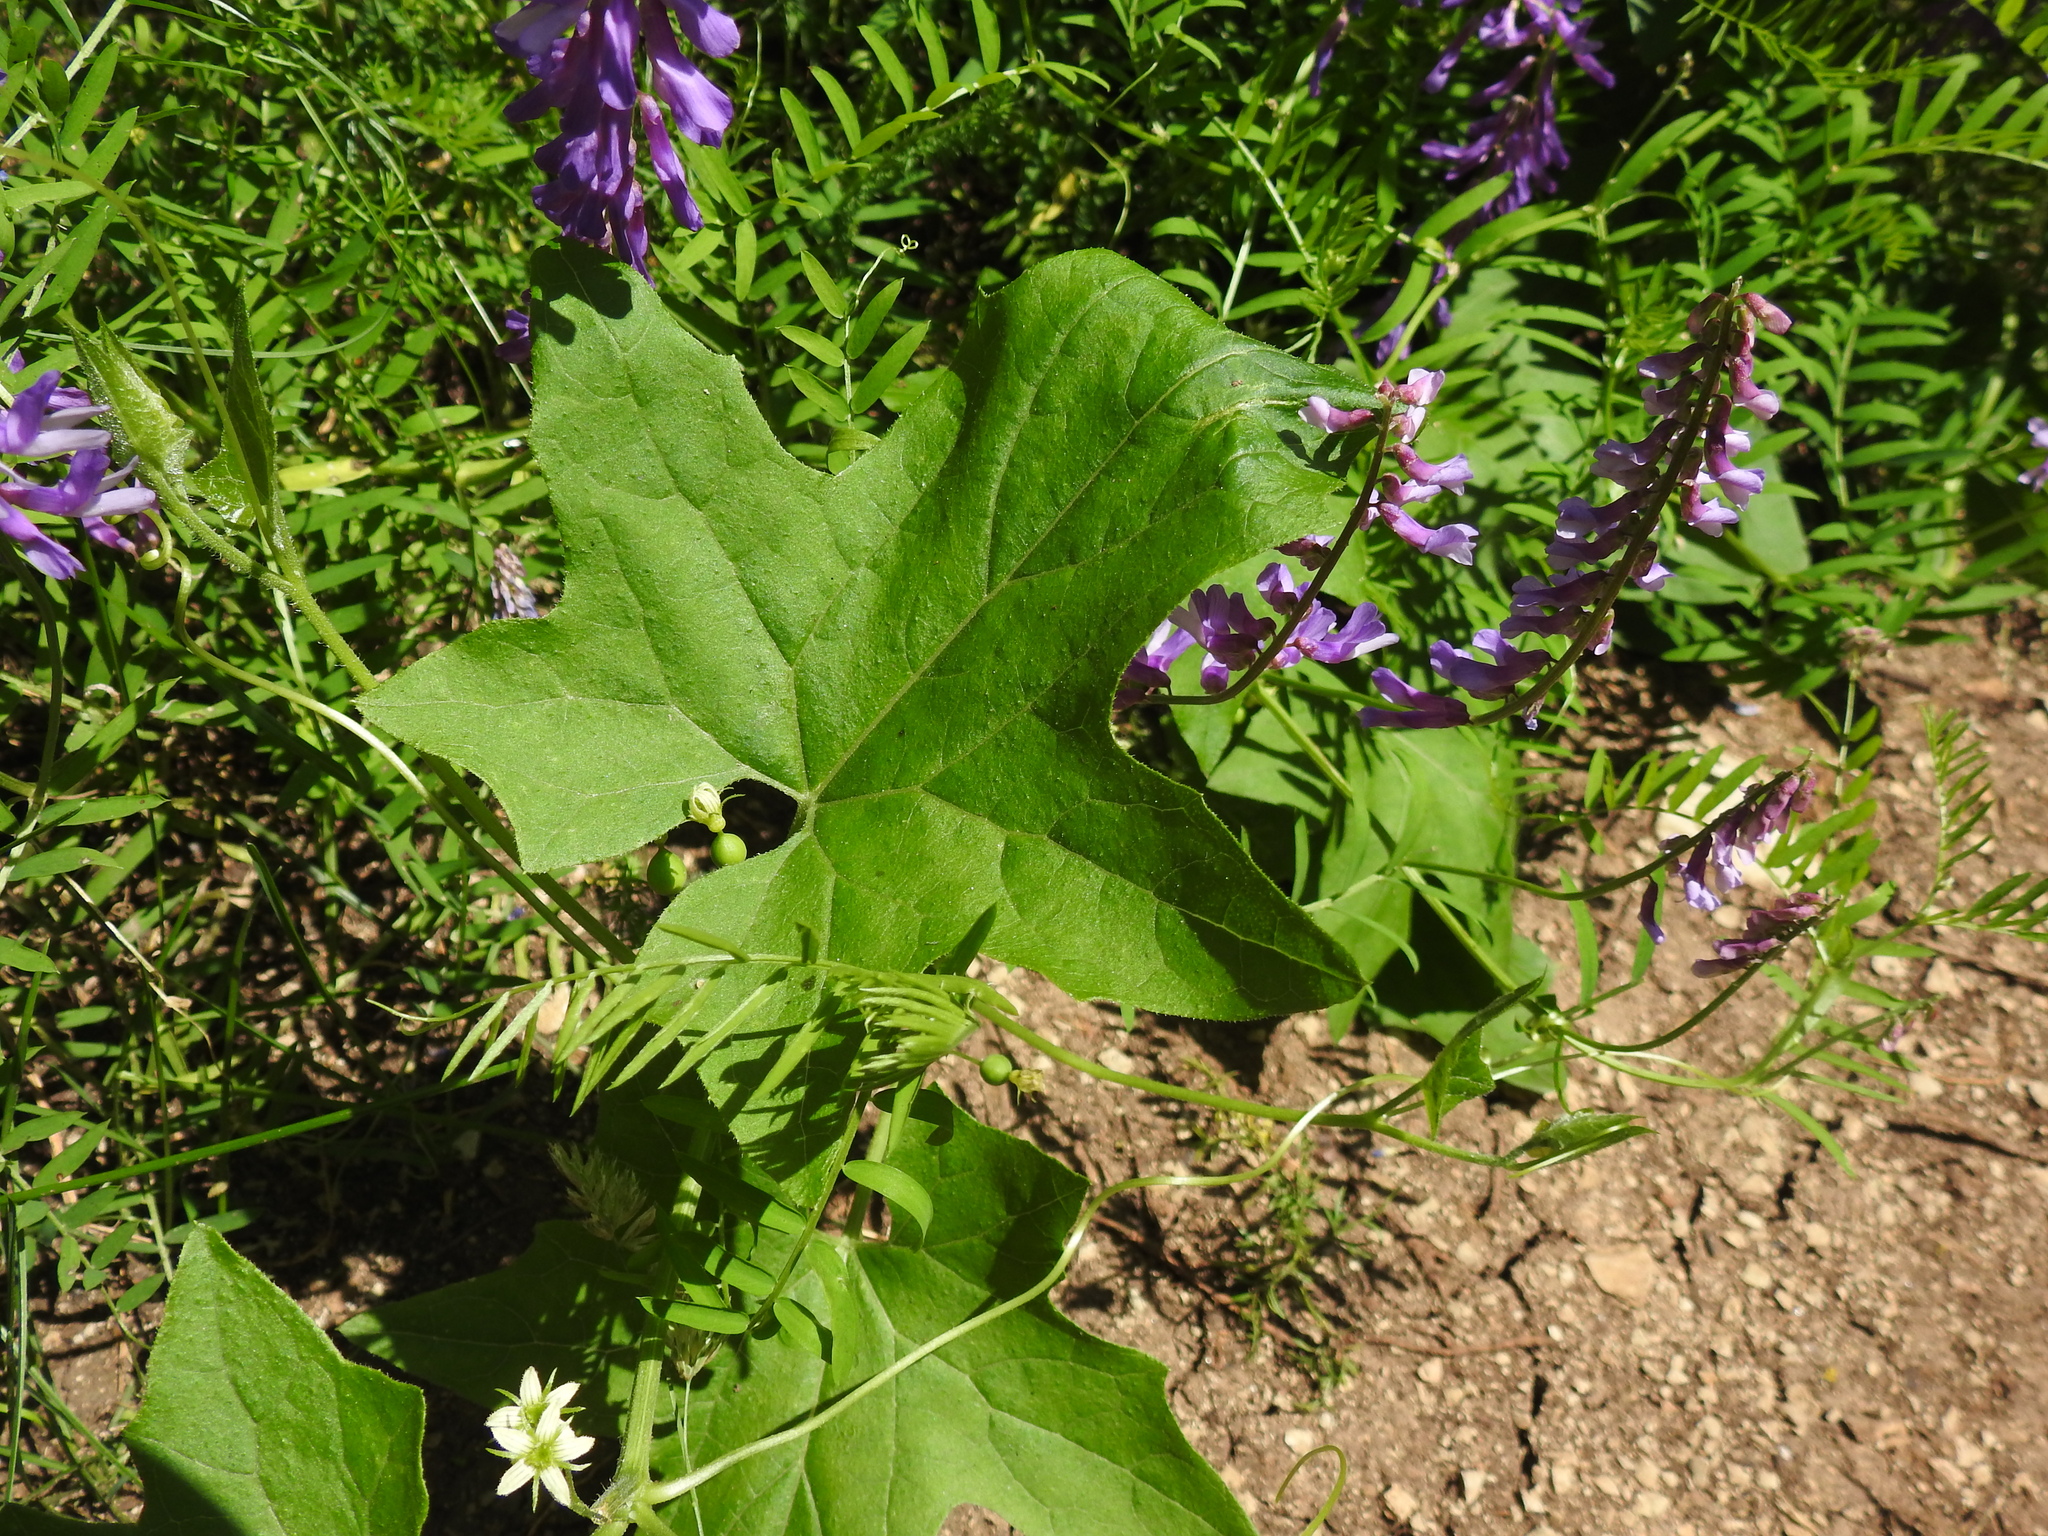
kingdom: Plantae
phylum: Tracheophyta
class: Magnoliopsida
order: Cucurbitales
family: Cucurbitaceae
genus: Bryonia
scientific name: Bryonia cretica
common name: Cretan bryony
